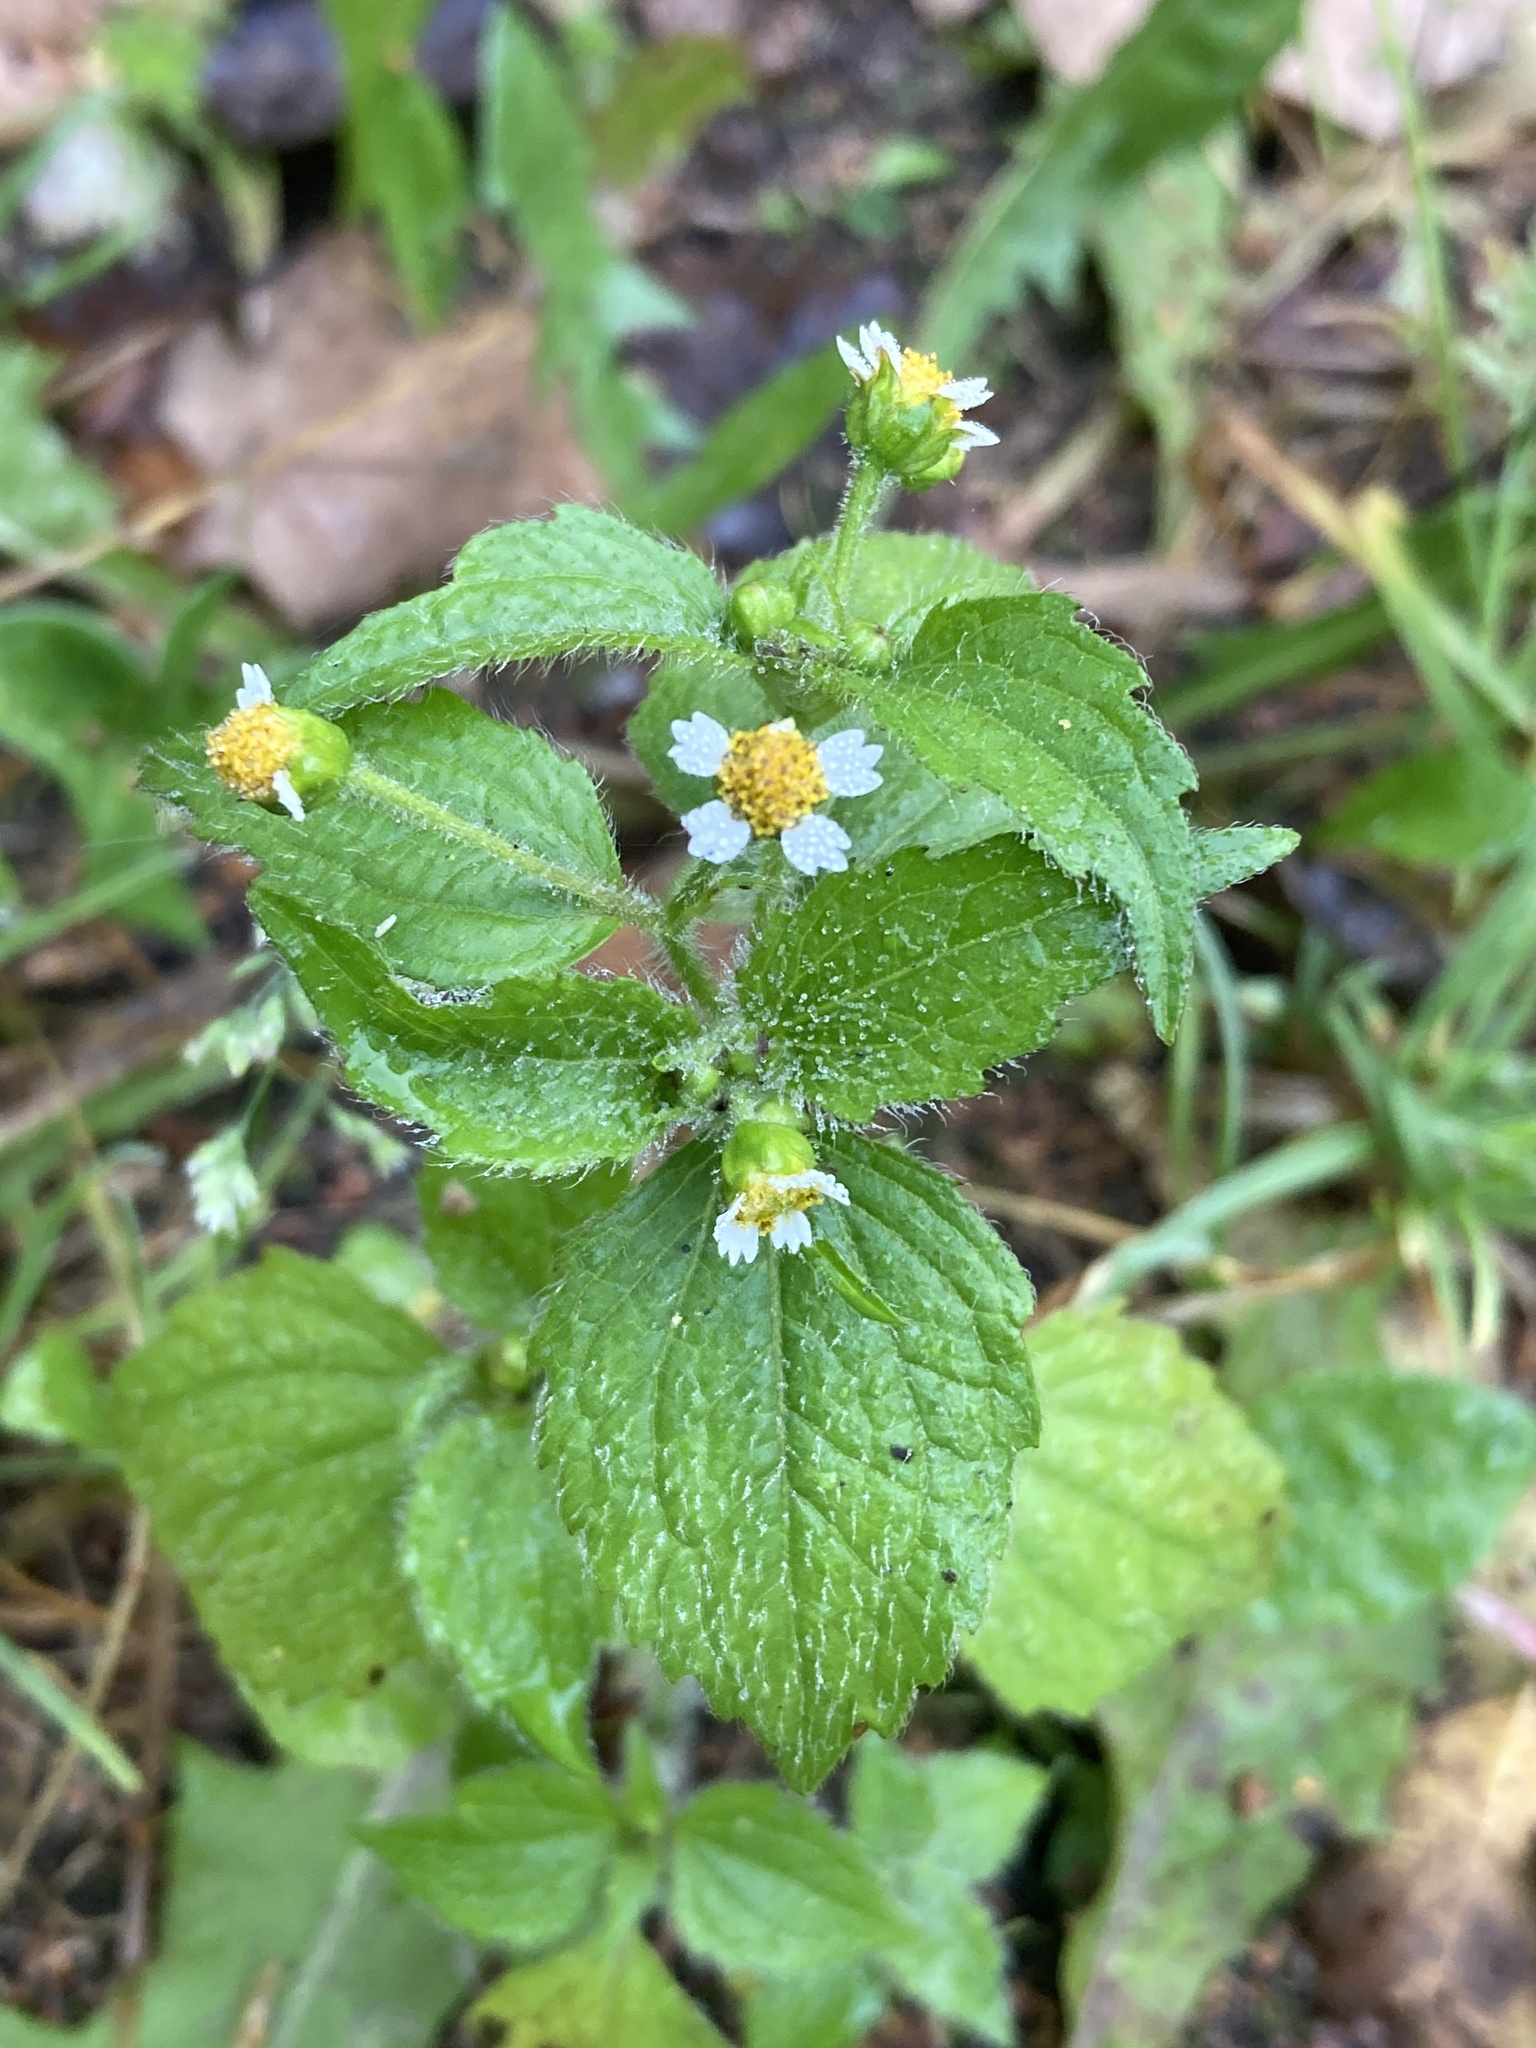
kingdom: Plantae
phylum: Tracheophyta
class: Magnoliopsida
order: Asterales
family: Asteraceae
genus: Galinsoga
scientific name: Galinsoga quadriradiata
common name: Shaggy soldier
